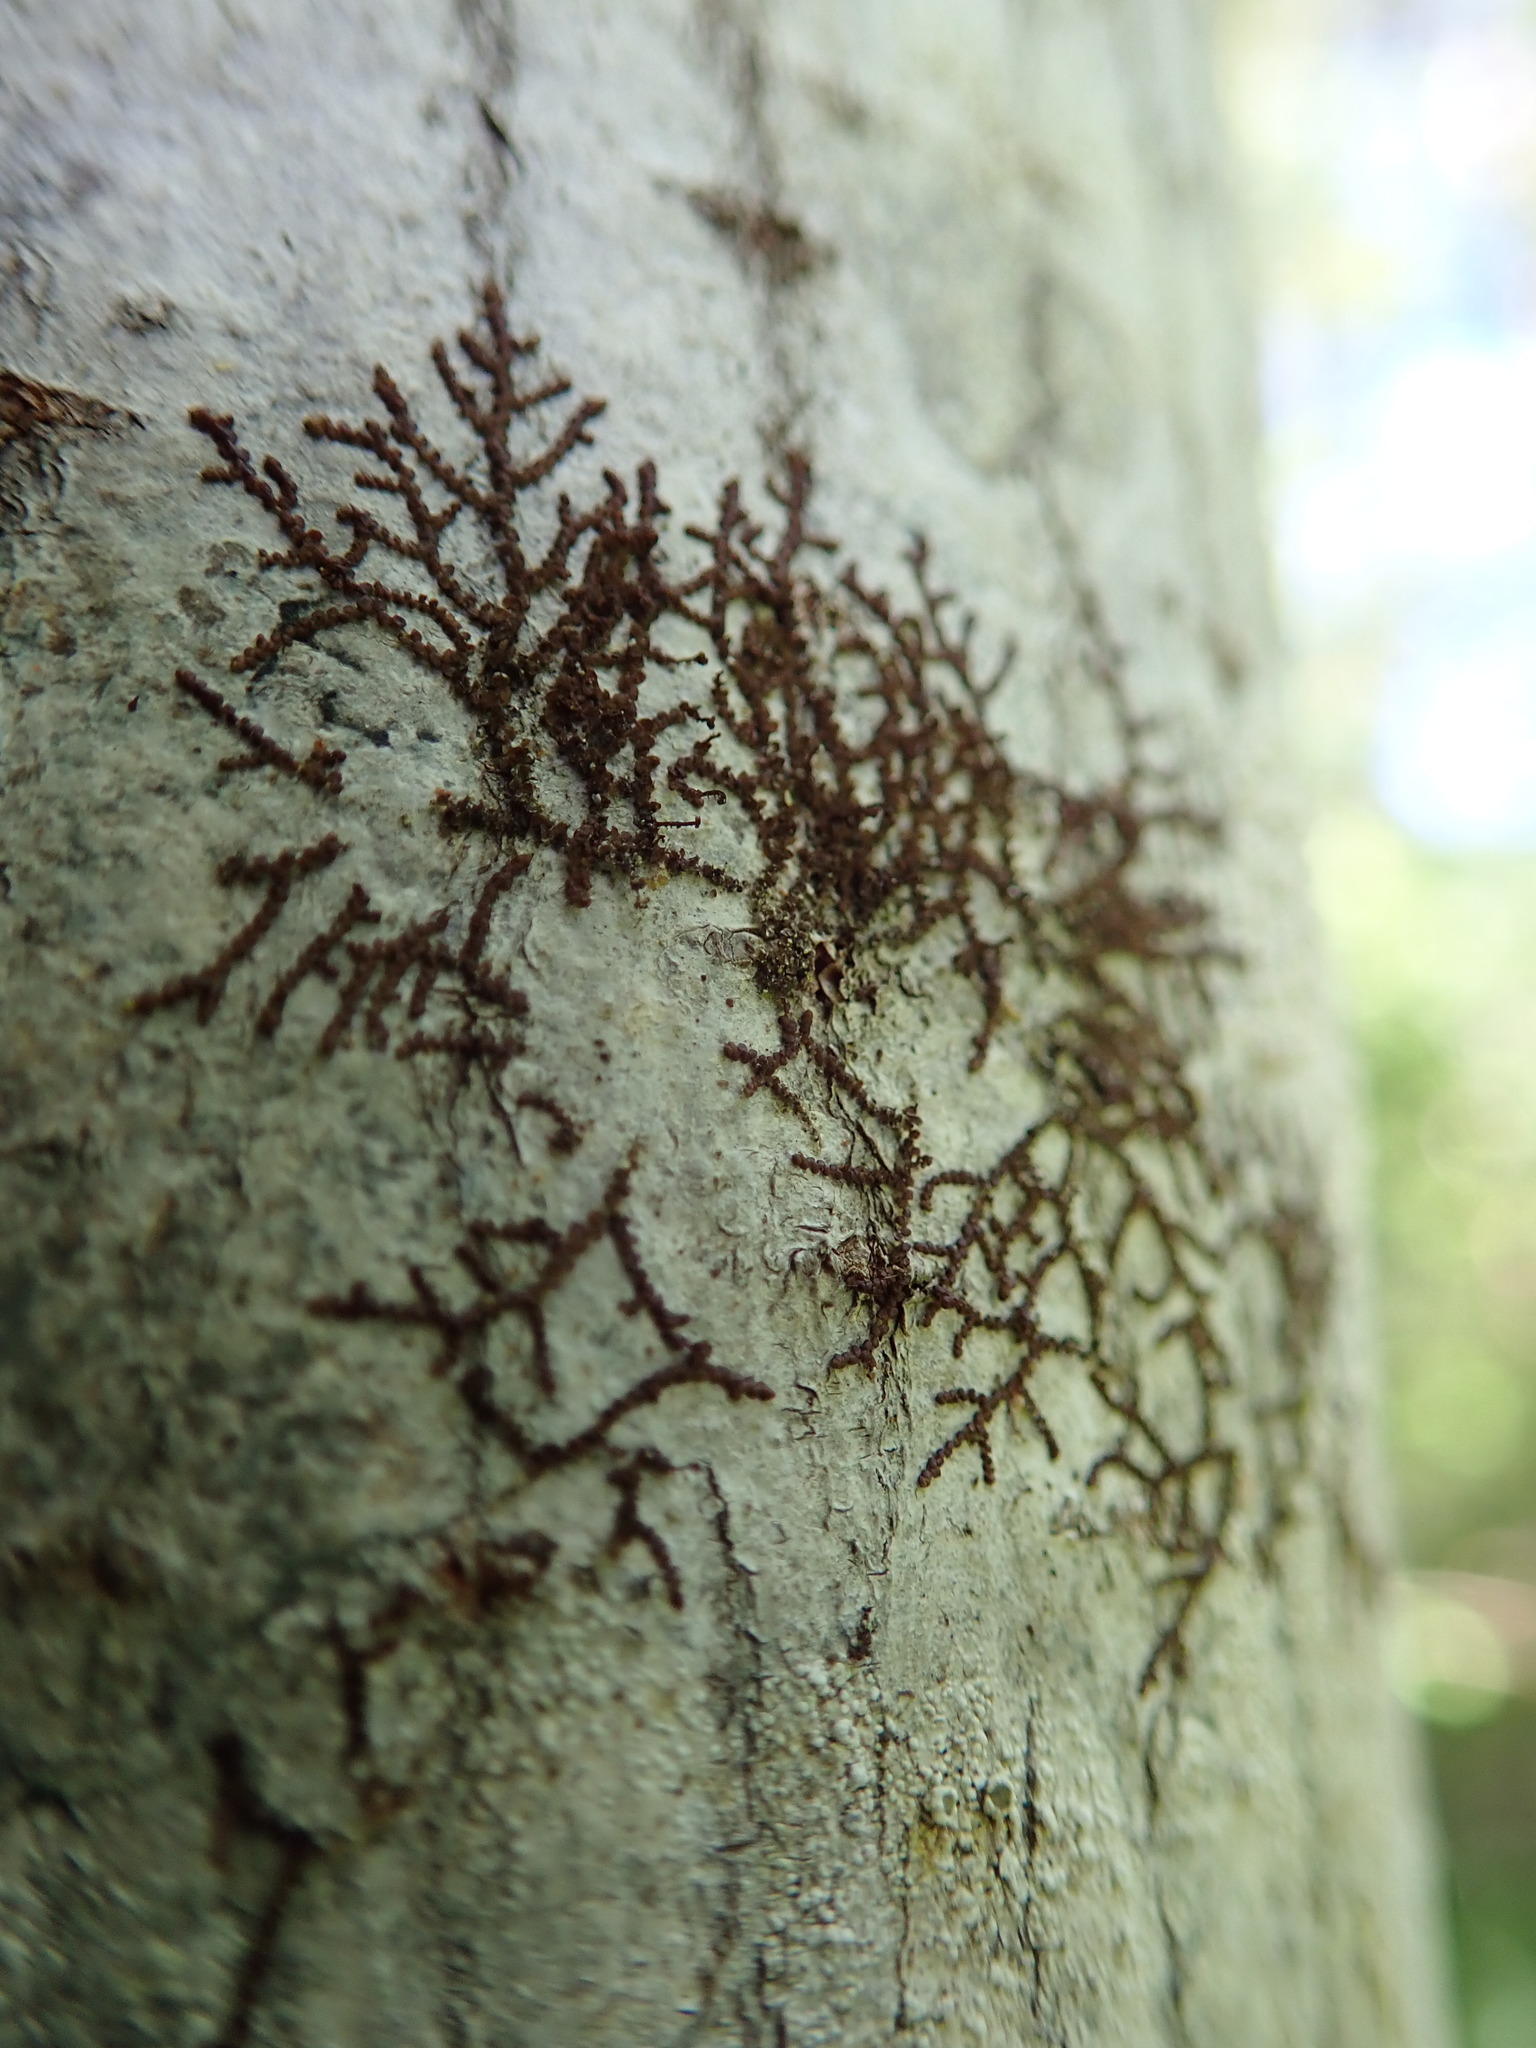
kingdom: Plantae
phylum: Marchantiophyta
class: Jungermanniopsida
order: Porellales
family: Frullaniaceae
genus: Frullania
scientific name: Frullania bolanderi
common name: Bolander s scalewort
